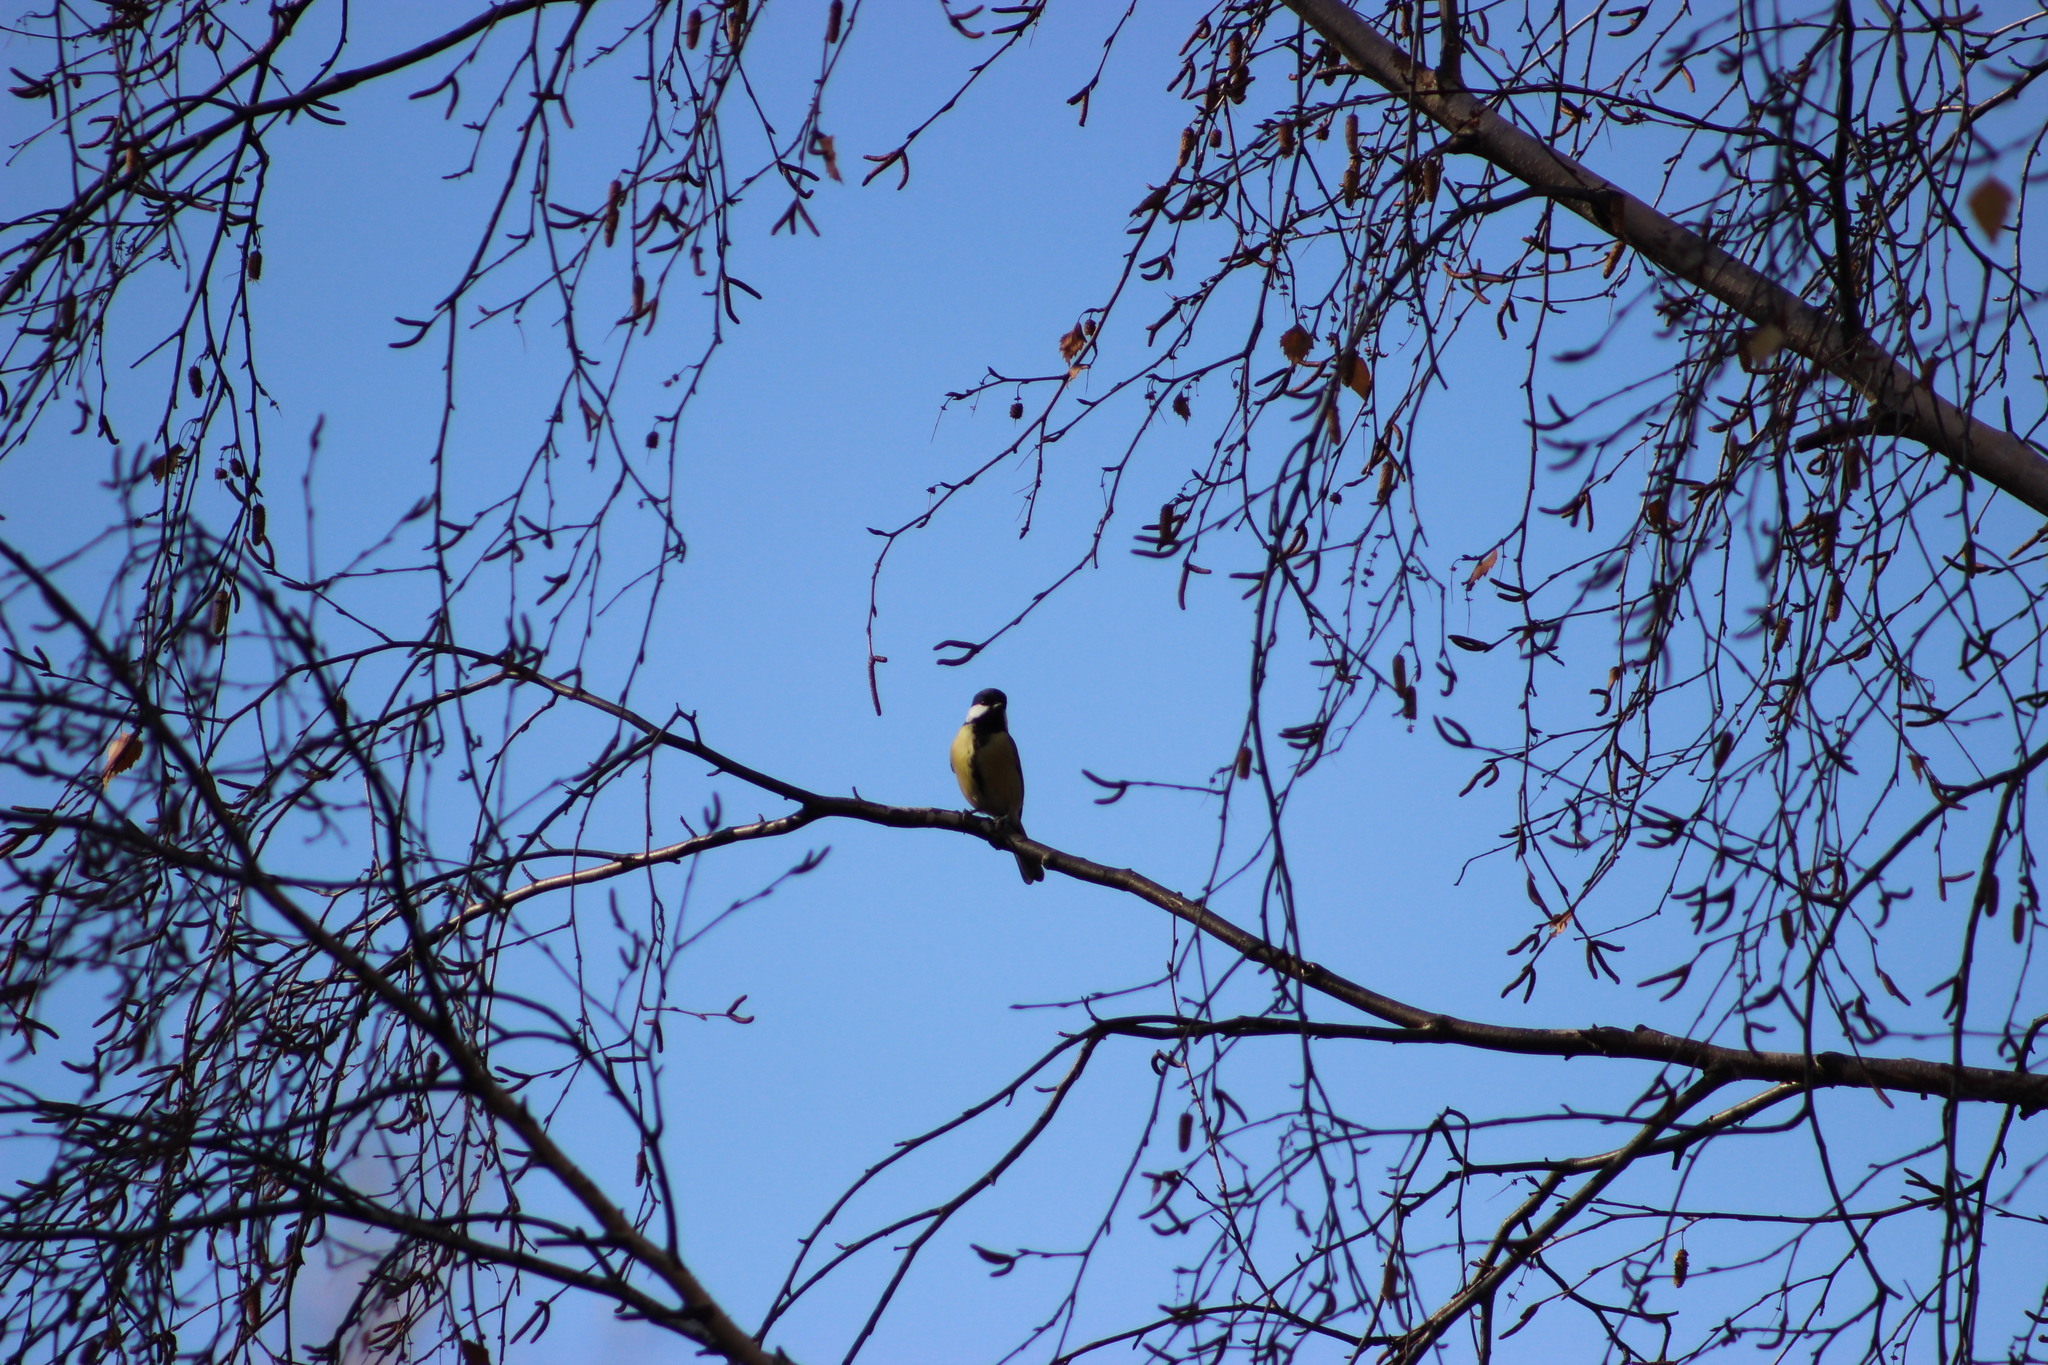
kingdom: Animalia
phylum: Chordata
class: Aves
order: Passeriformes
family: Paridae
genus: Parus
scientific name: Parus major
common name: Great tit
